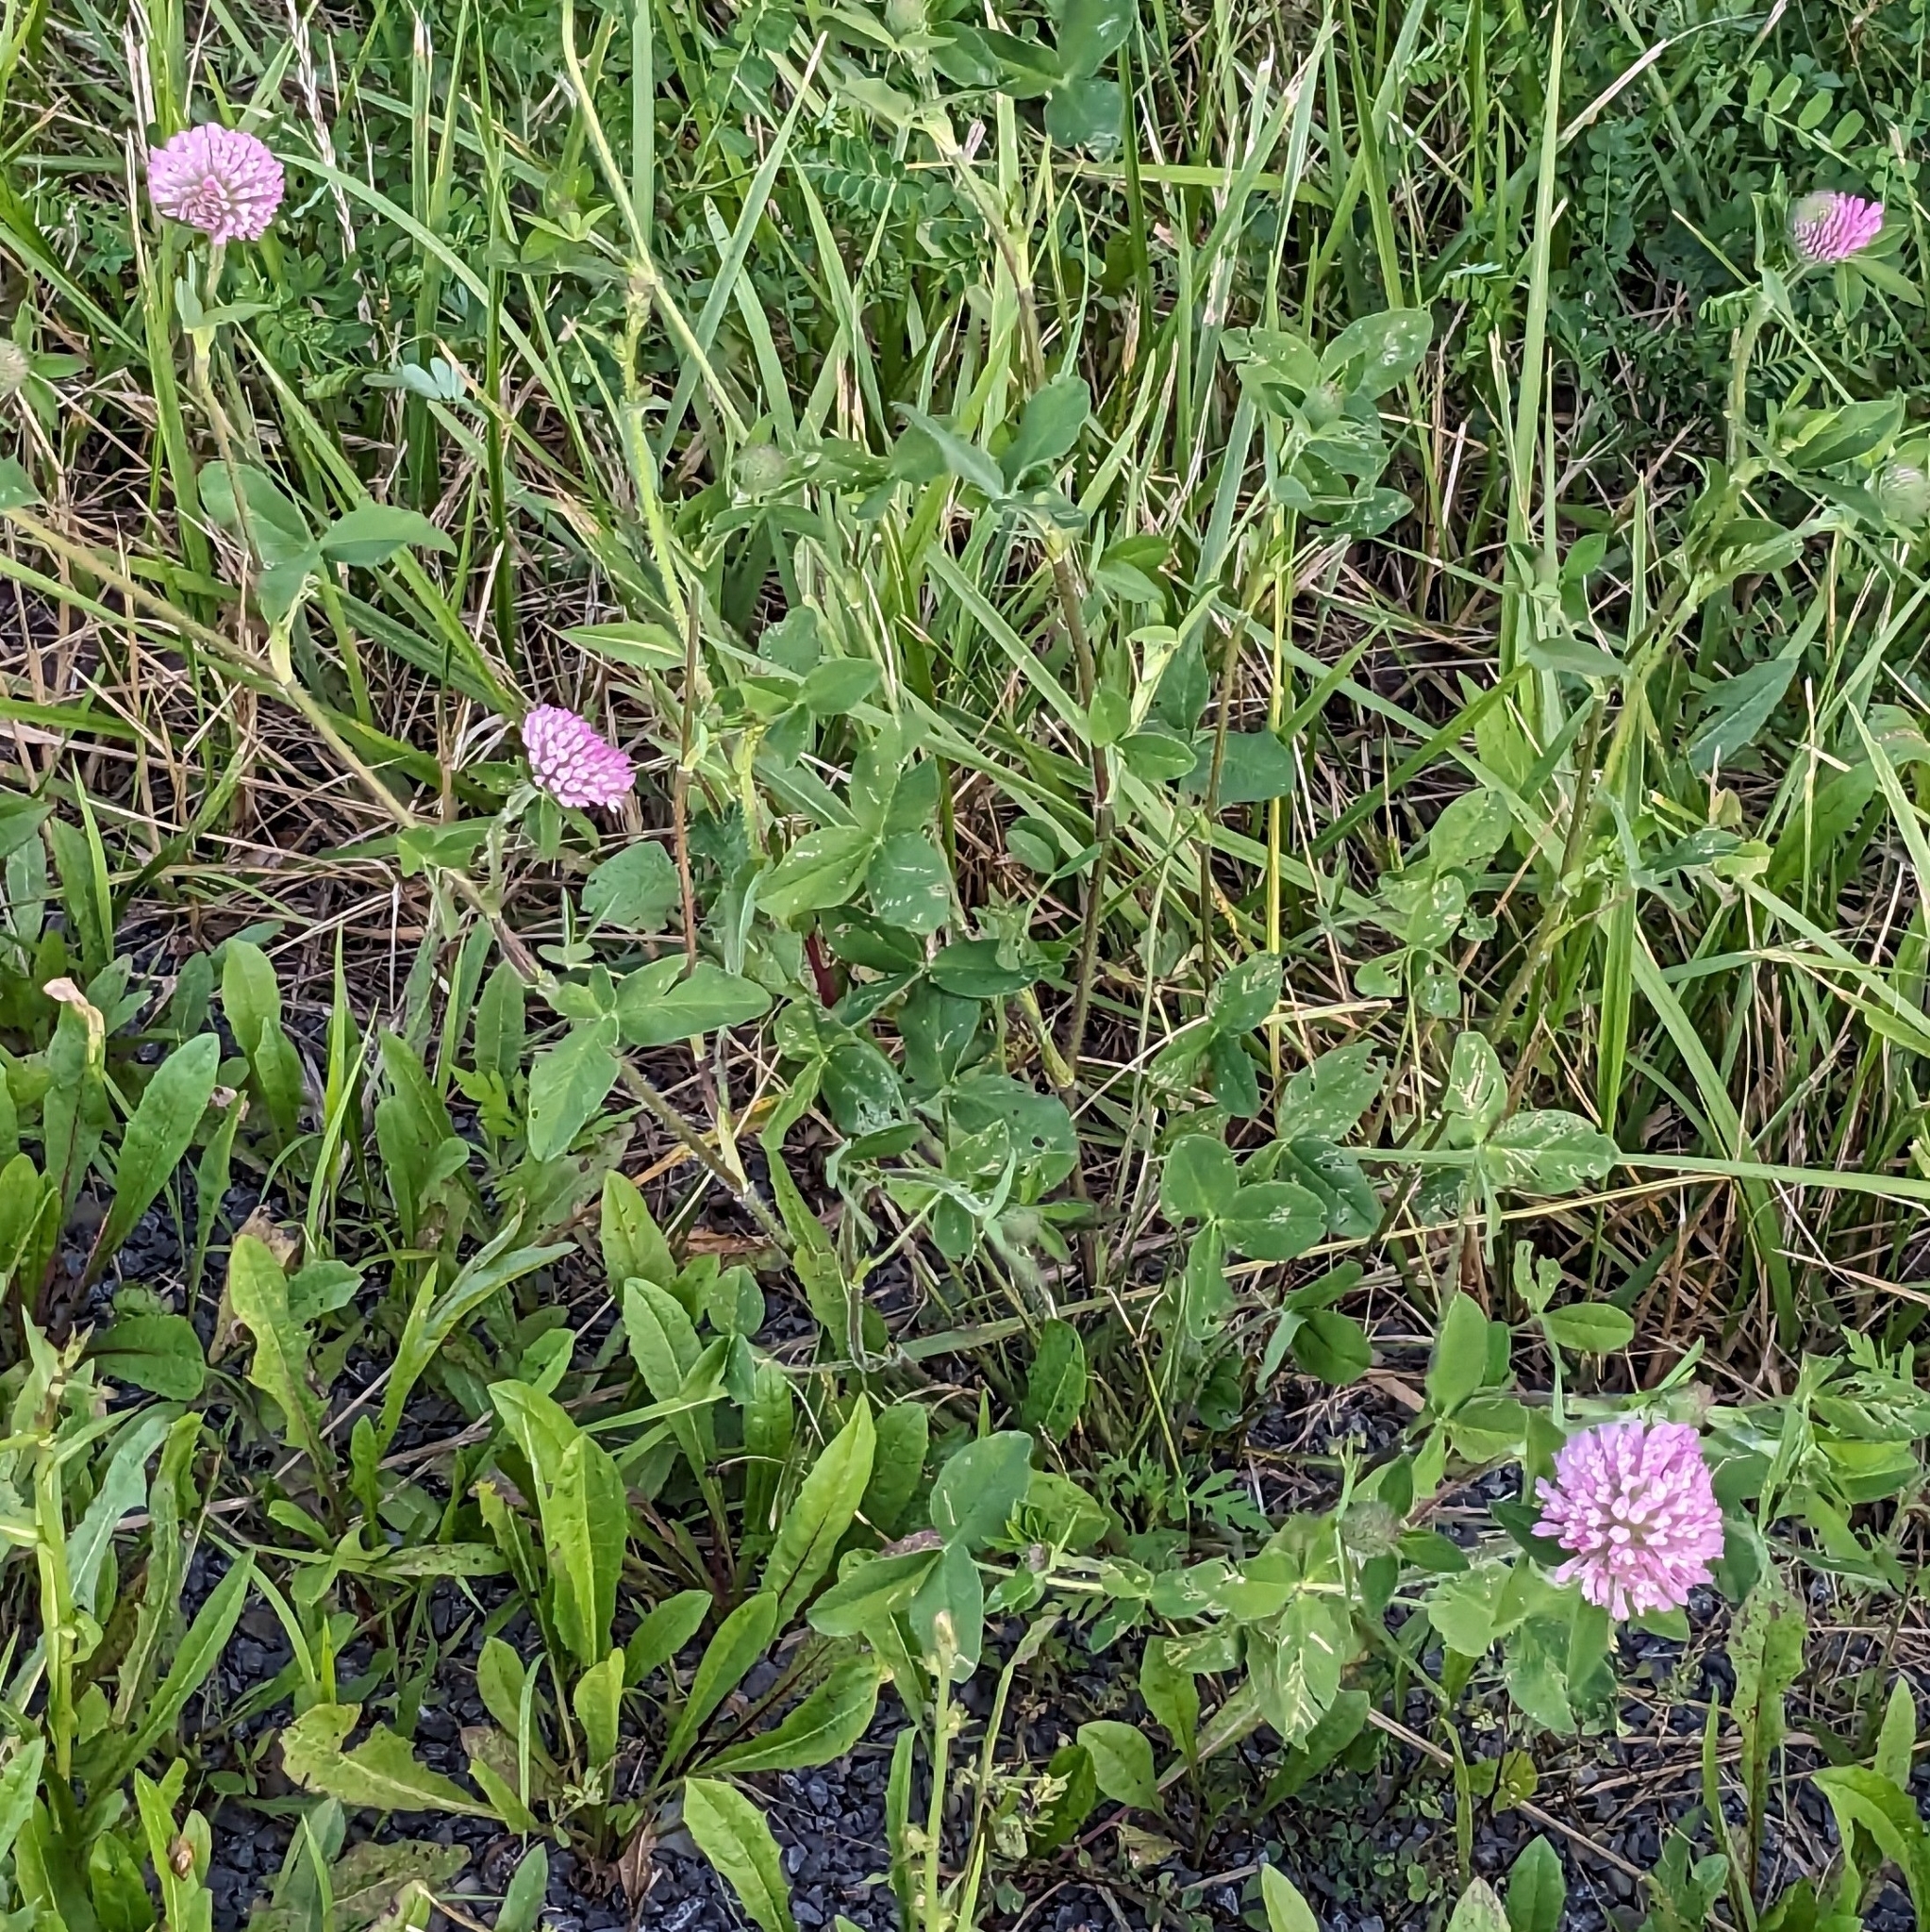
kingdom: Plantae
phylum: Tracheophyta
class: Magnoliopsida
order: Fabales
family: Fabaceae
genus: Trifolium
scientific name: Trifolium pratense
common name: Red clover
